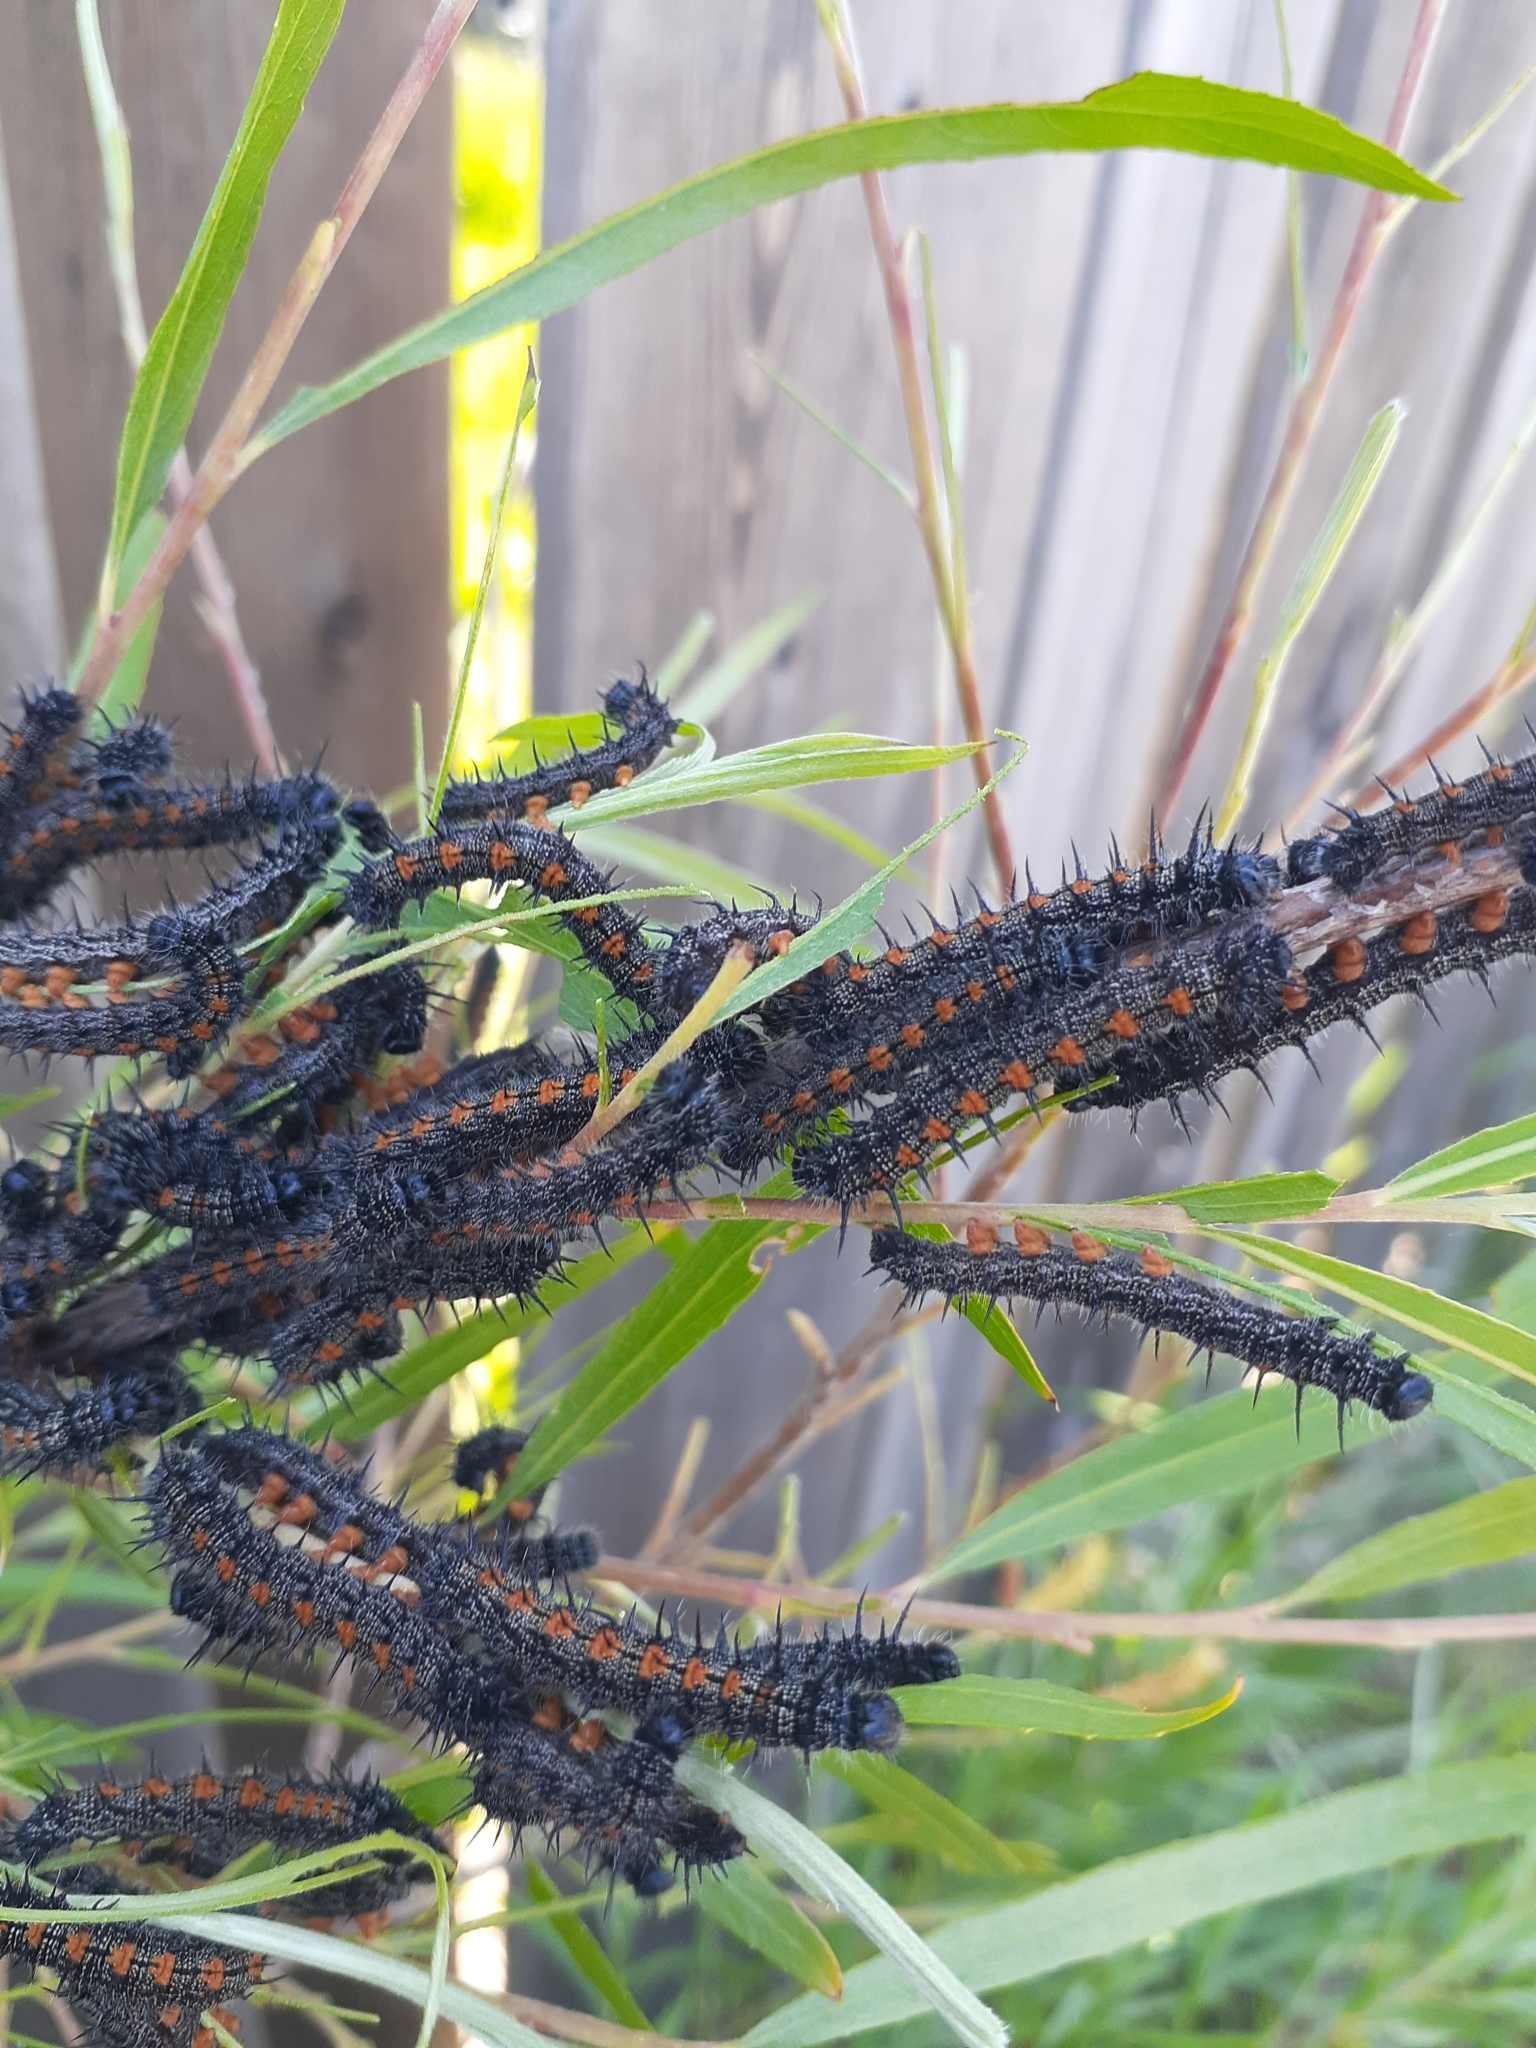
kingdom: Animalia
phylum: Arthropoda
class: Insecta
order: Lepidoptera
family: Nymphalidae
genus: Nymphalis
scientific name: Nymphalis antiopa
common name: Camberwell beauty
